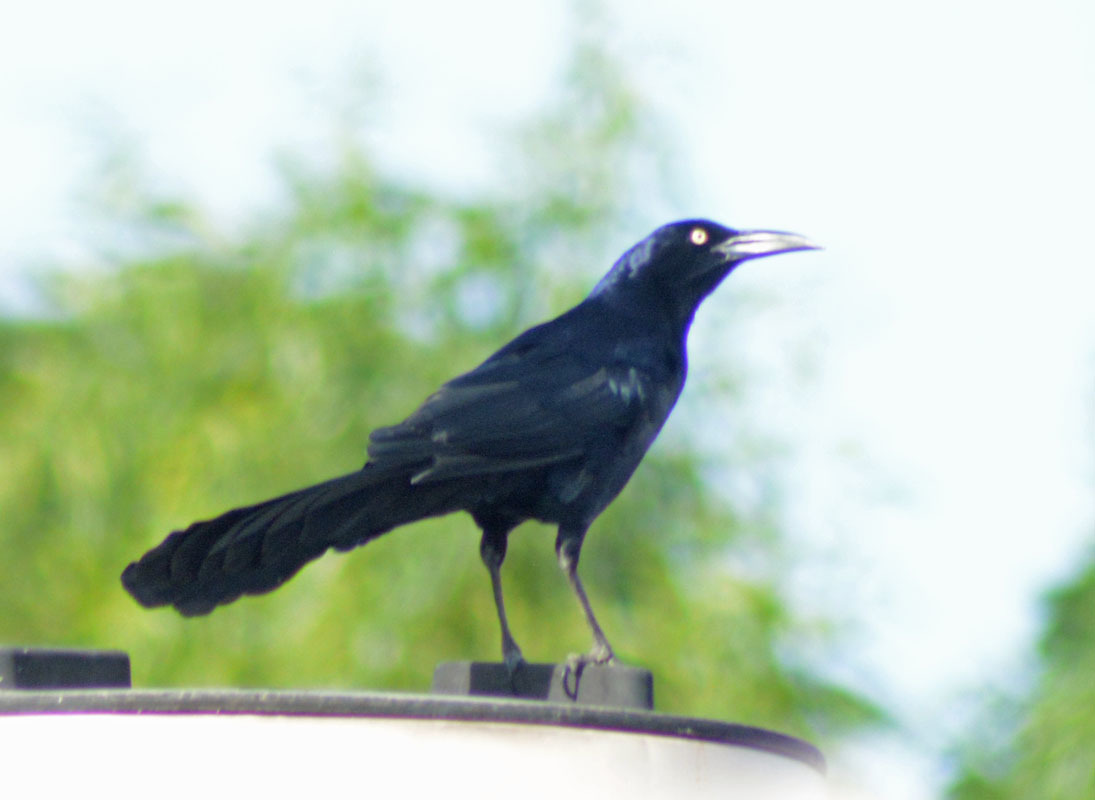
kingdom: Animalia
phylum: Chordata
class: Aves
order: Passeriformes
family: Icteridae
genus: Quiscalus
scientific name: Quiscalus mexicanus
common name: Great-tailed grackle
